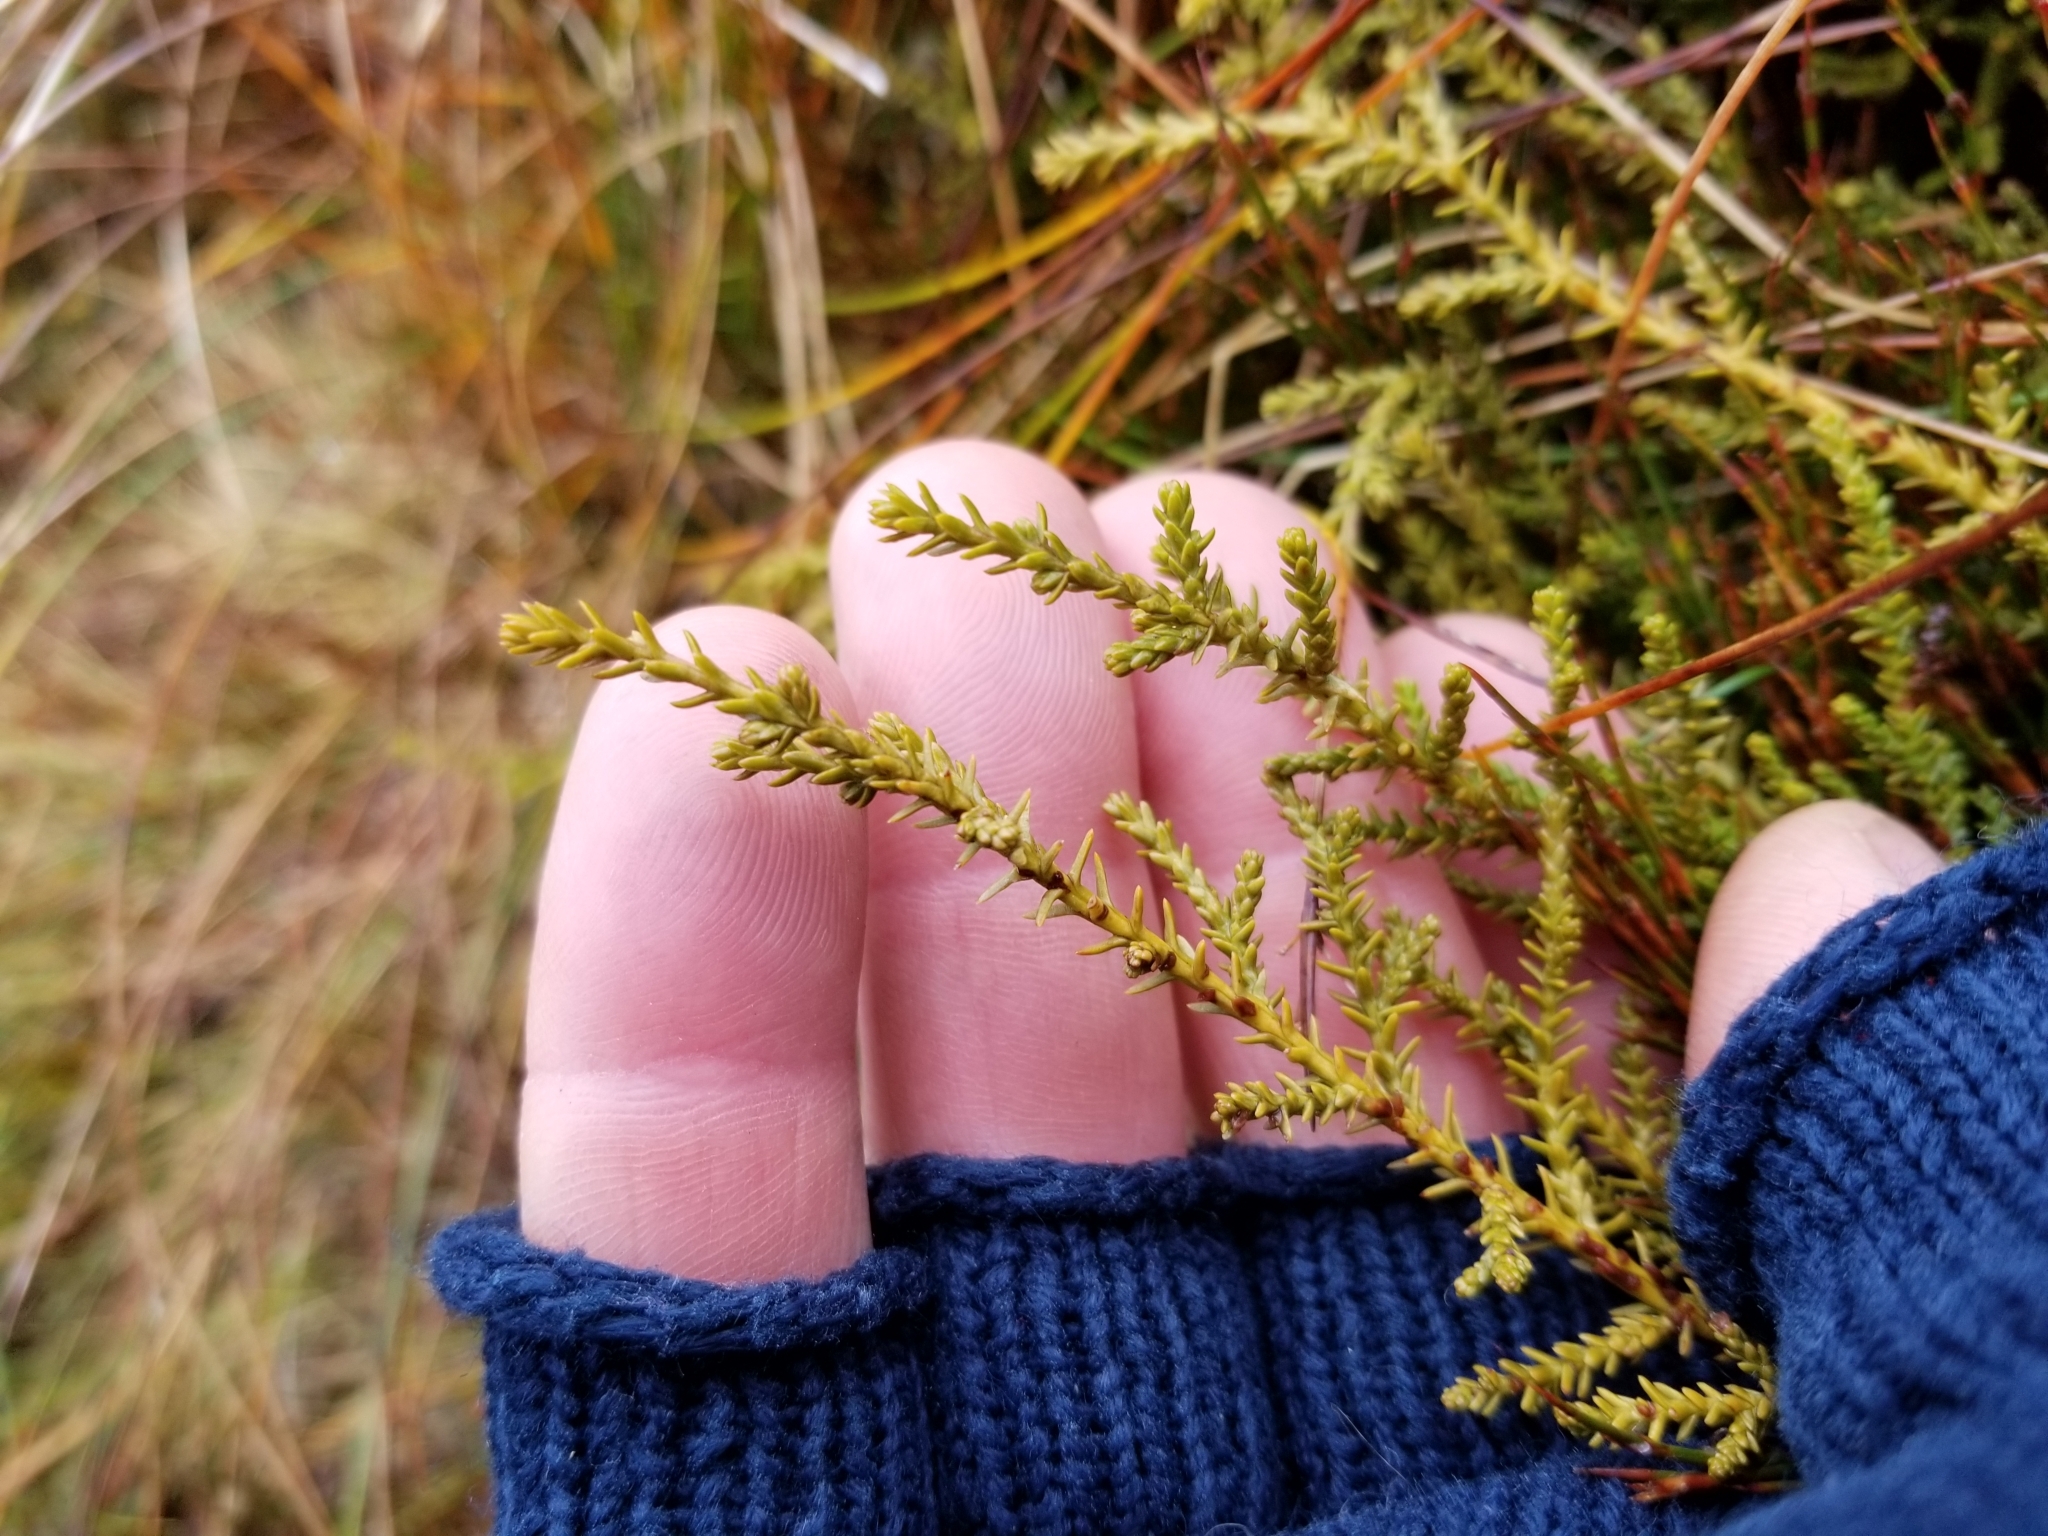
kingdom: Plantae
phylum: Tracheophyta
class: Pinopsida
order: Pinales
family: Podocarpaceae
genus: Lepidothamnus
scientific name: Lepidothamnus laxifolius
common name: Pygmy pine
